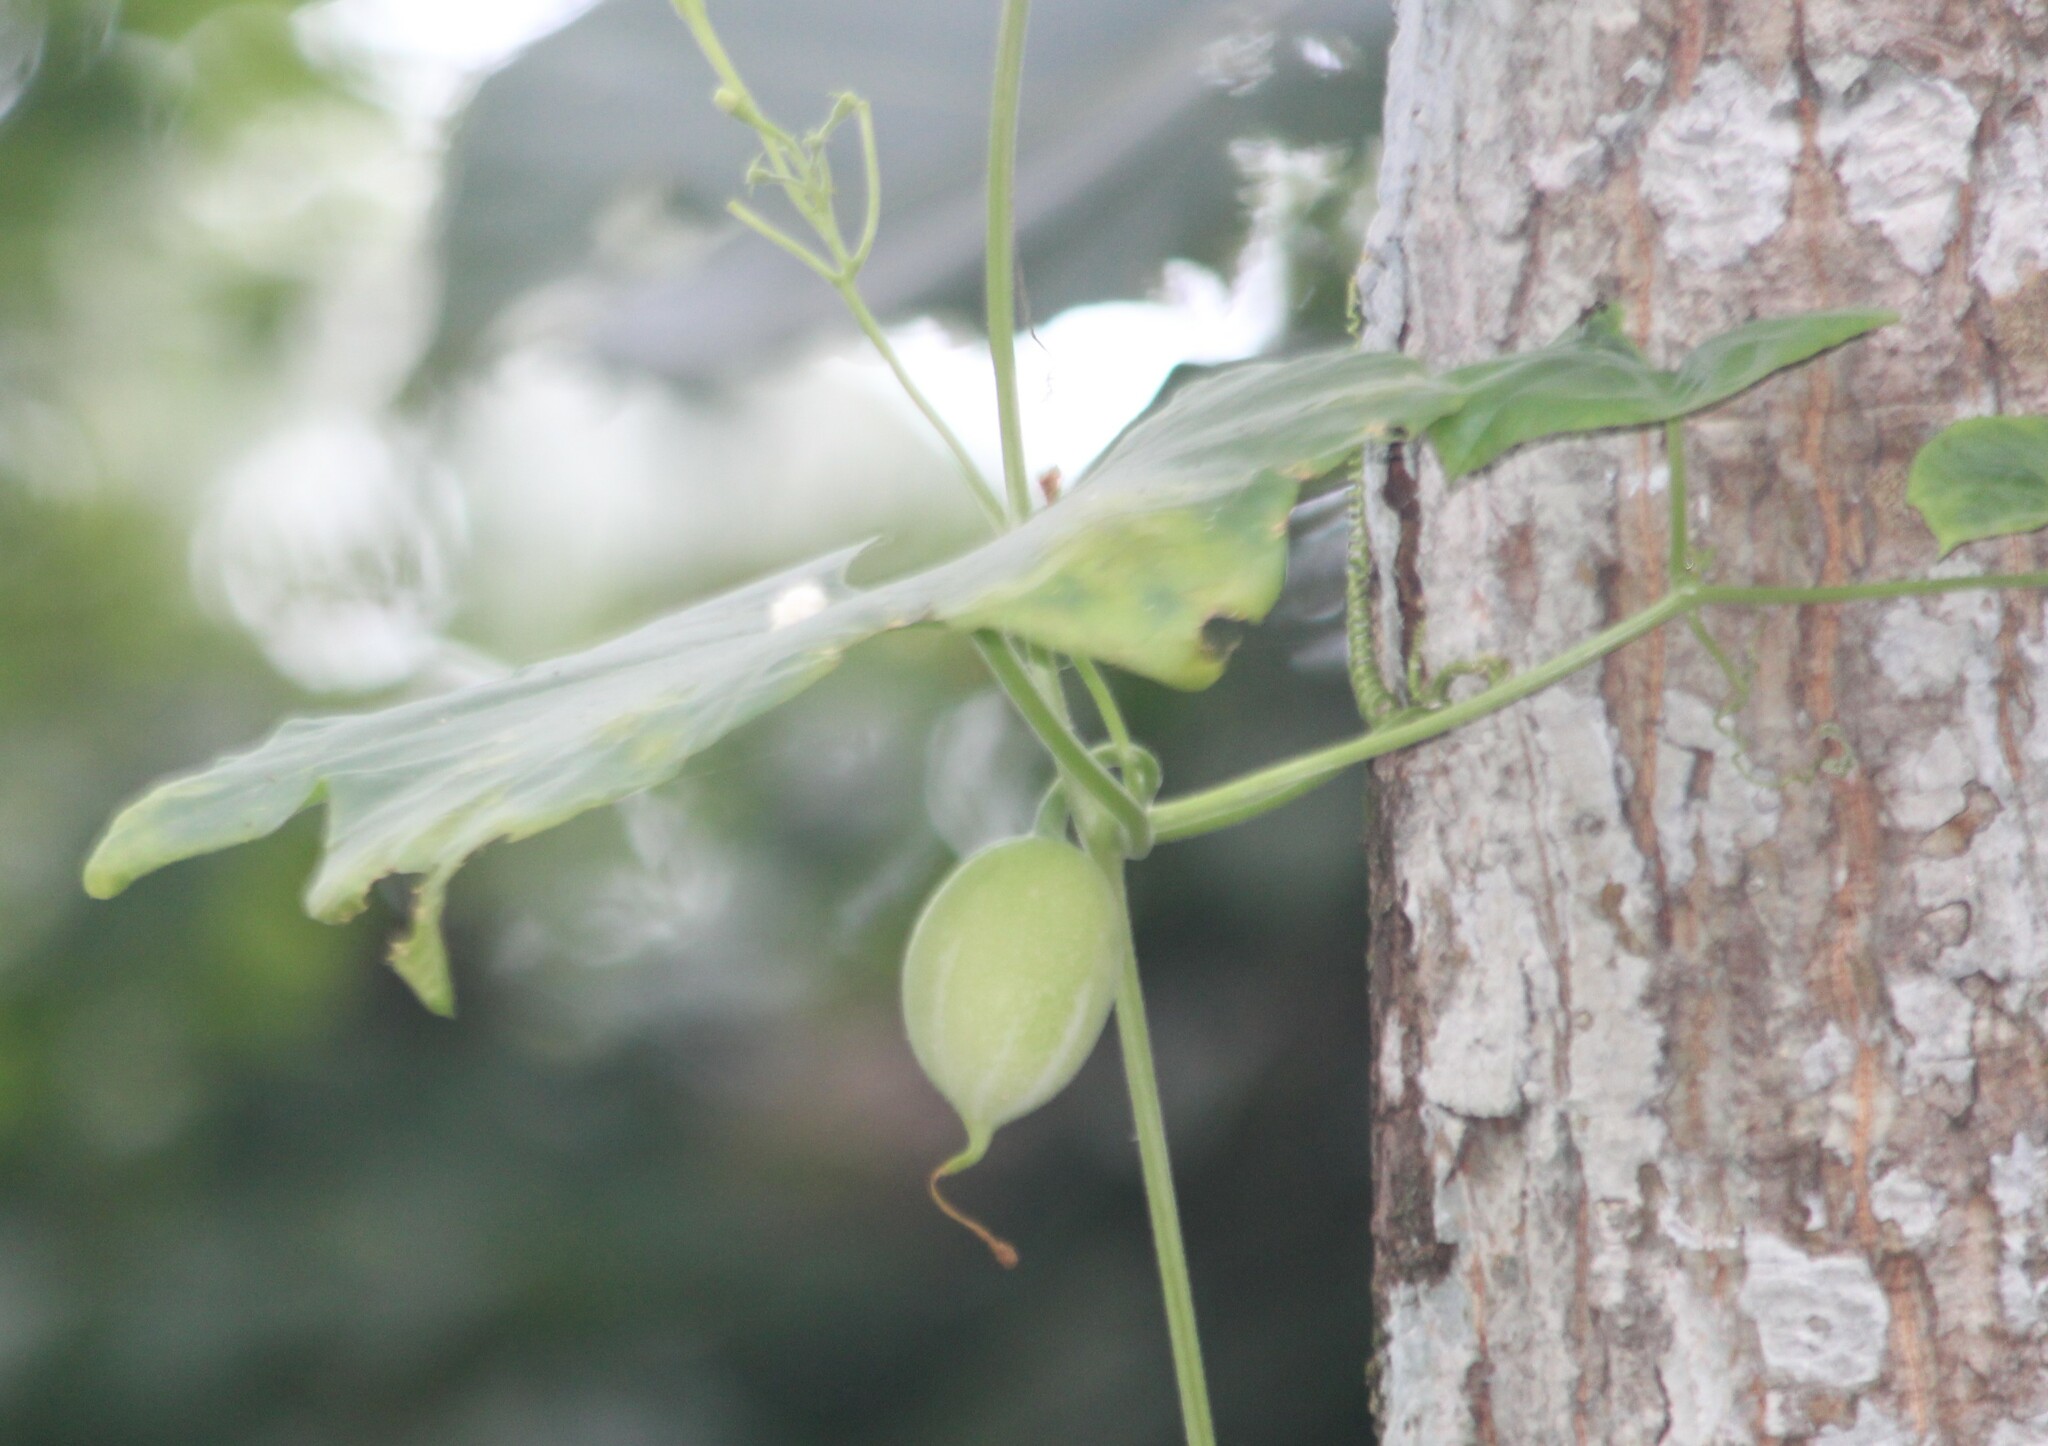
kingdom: Plantae
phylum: Tracheophyta
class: Magnoliopsida
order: Cucurbitales
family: Cucurbitaceae
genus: Trichosanthes
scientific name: Trichosanthes dioica
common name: Pointed gourd
